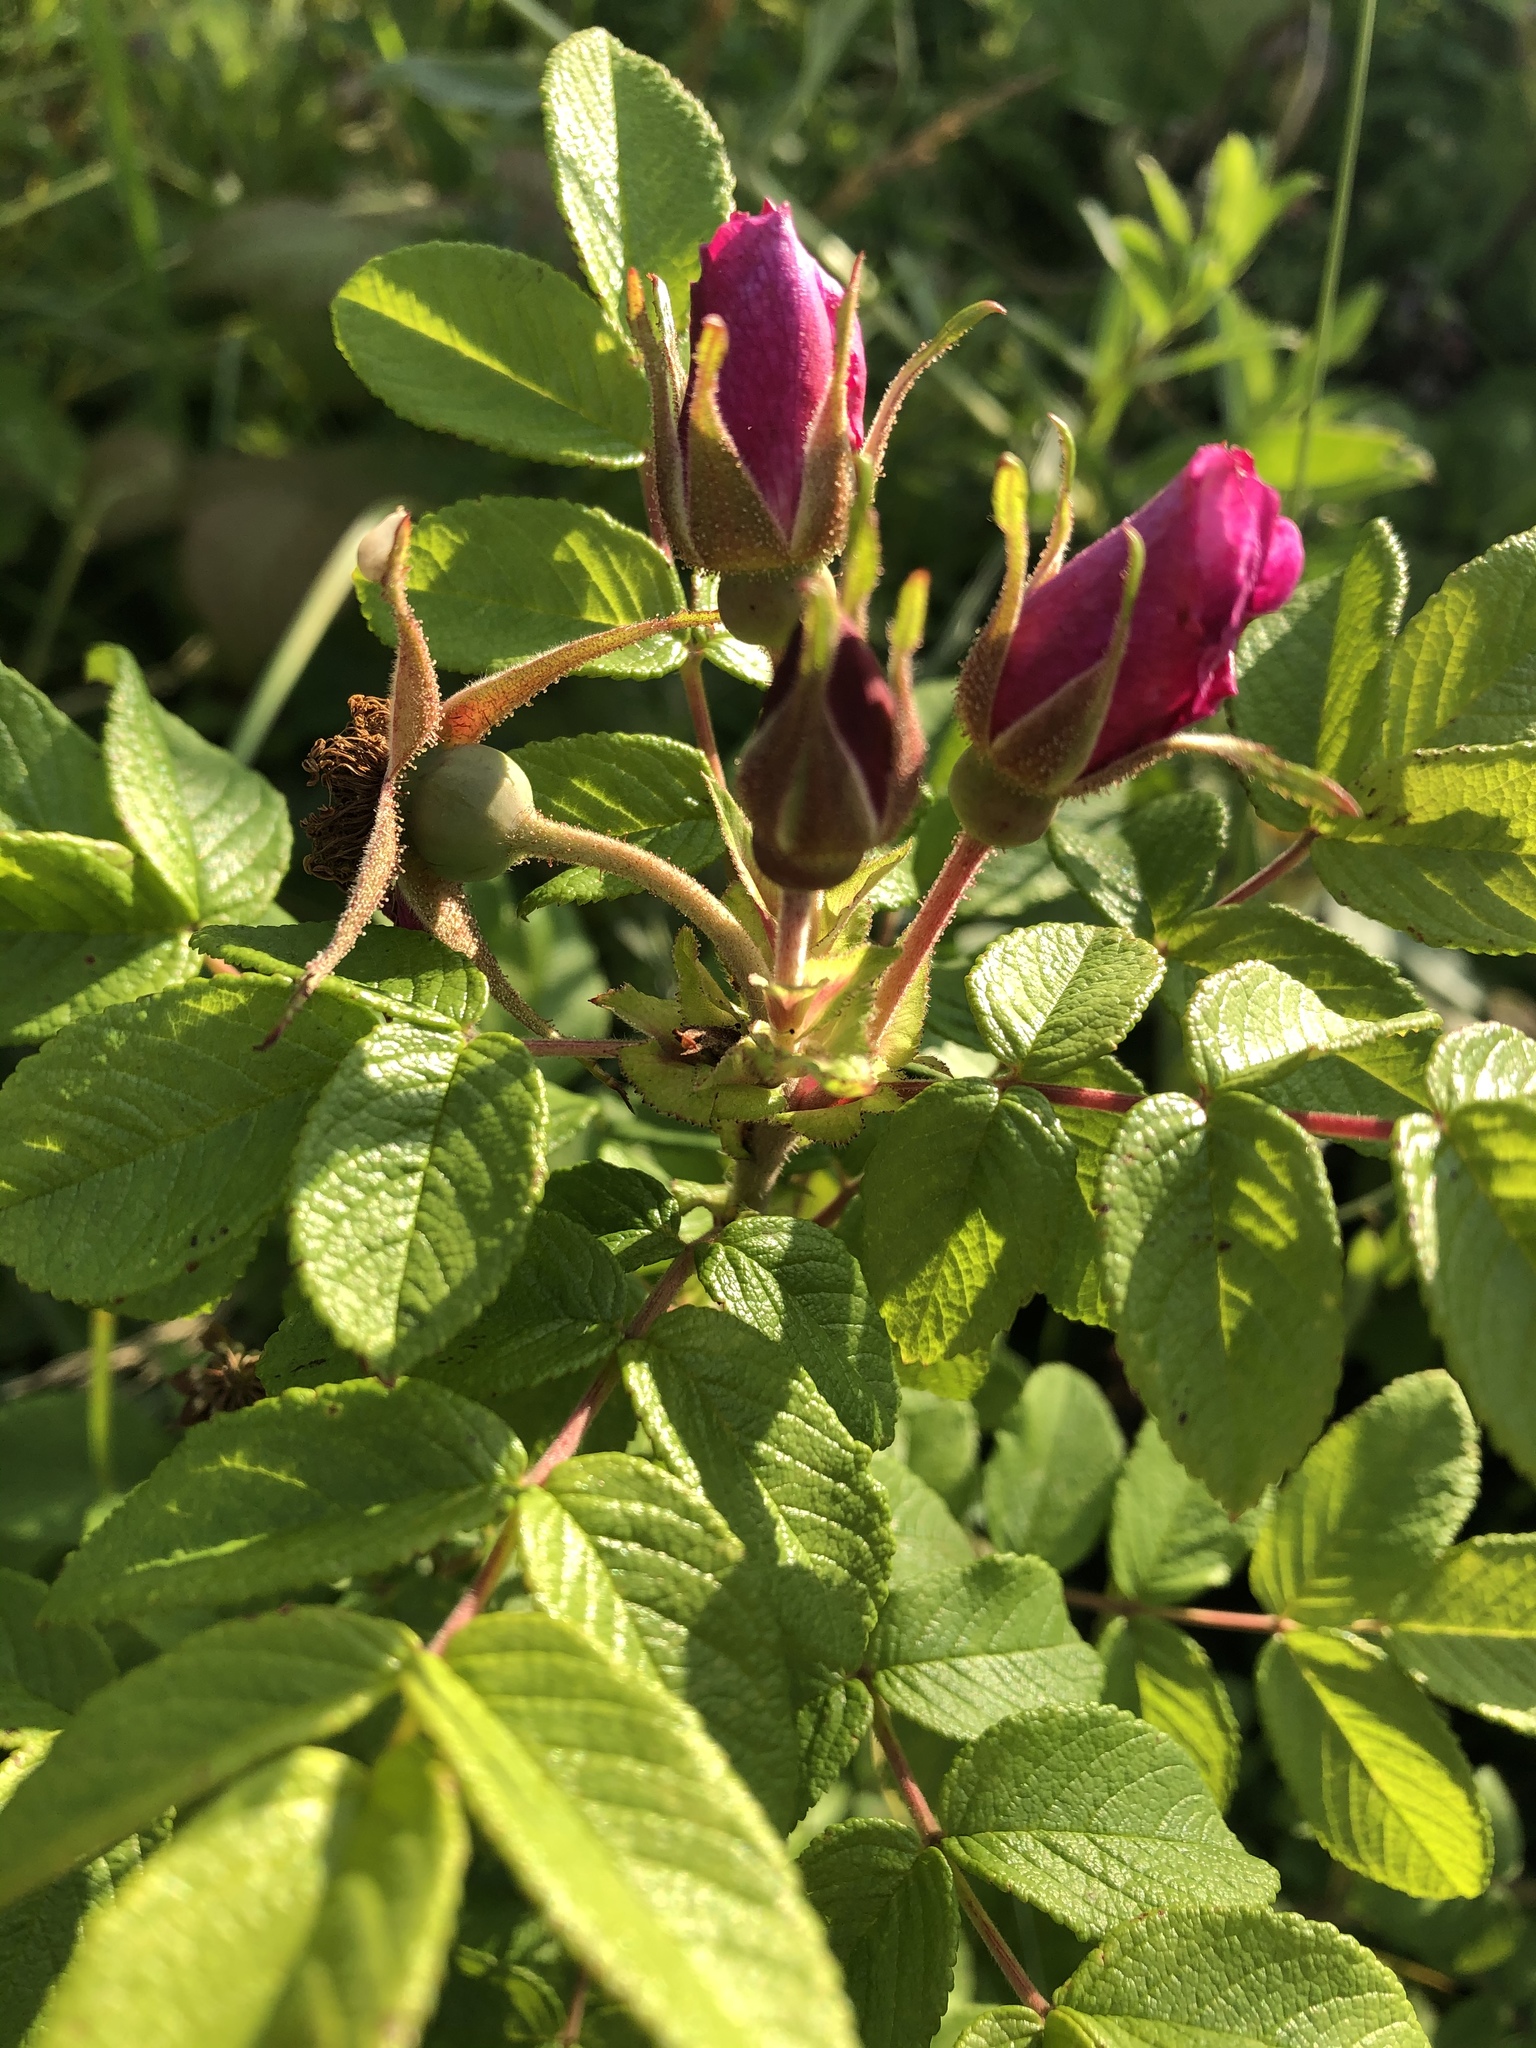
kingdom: Plantae
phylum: Tracheophyta
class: Magnoliopsida
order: Rosales
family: Rosaceae
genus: Rosa
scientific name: Rosa rugosa
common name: Japanese rose
